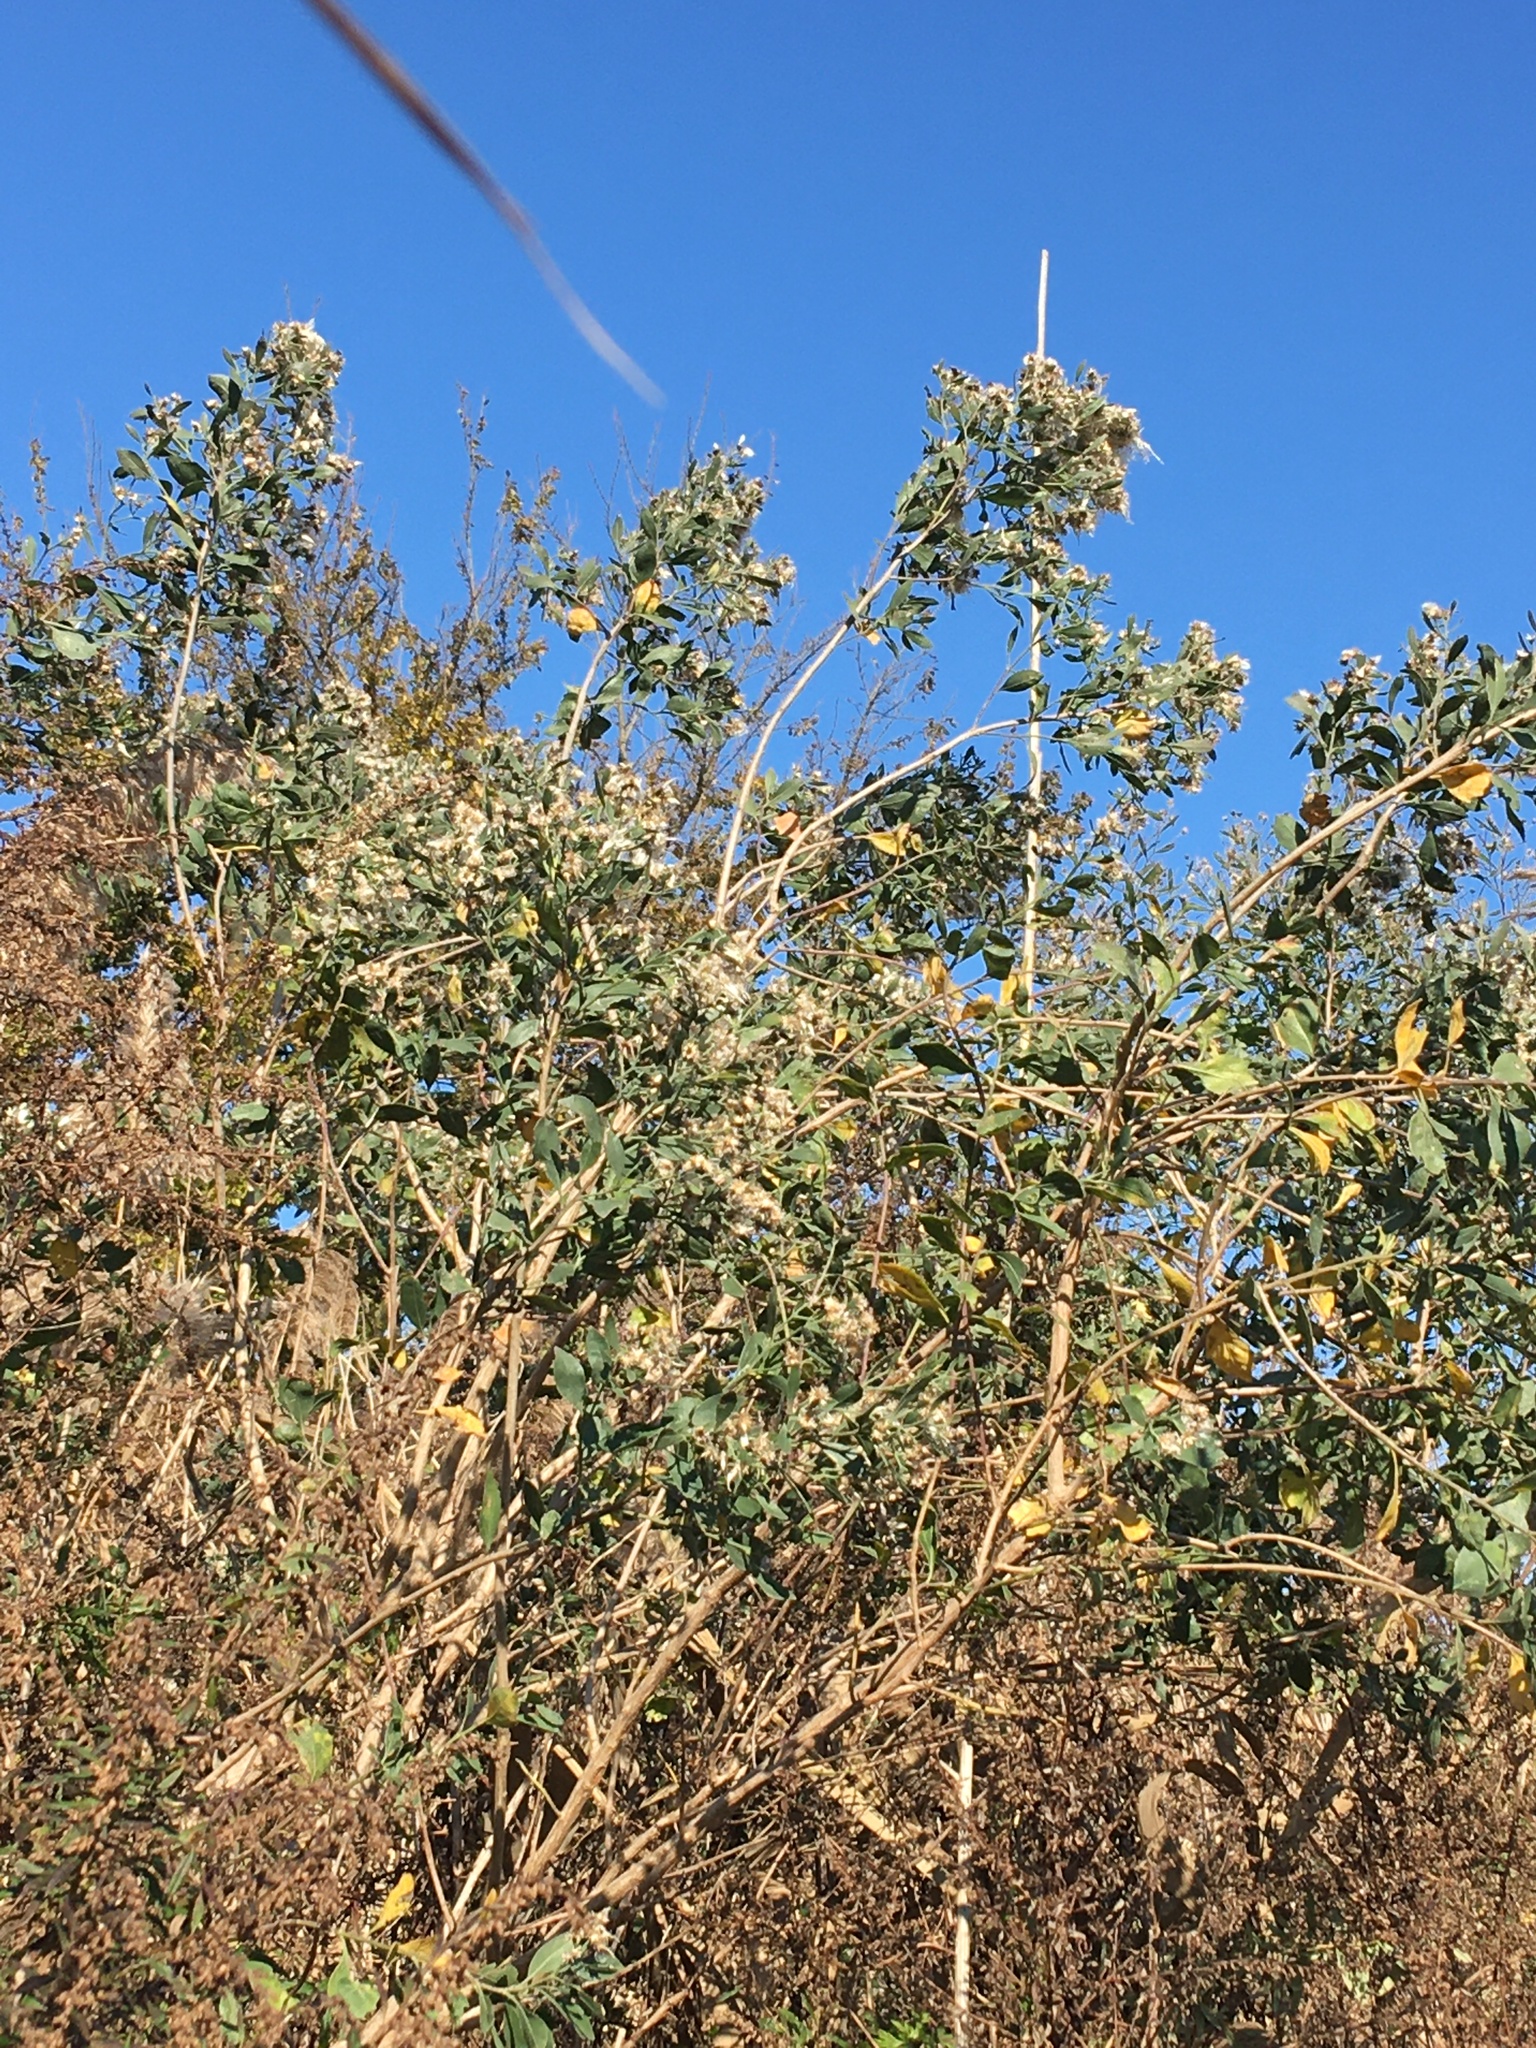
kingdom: Plantae
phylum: Tracheophyta
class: Magnoliopsida
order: Asterales
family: Asteraceae
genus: Baccharis
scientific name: Baccharis halimifolia
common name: Eastern baccharis
